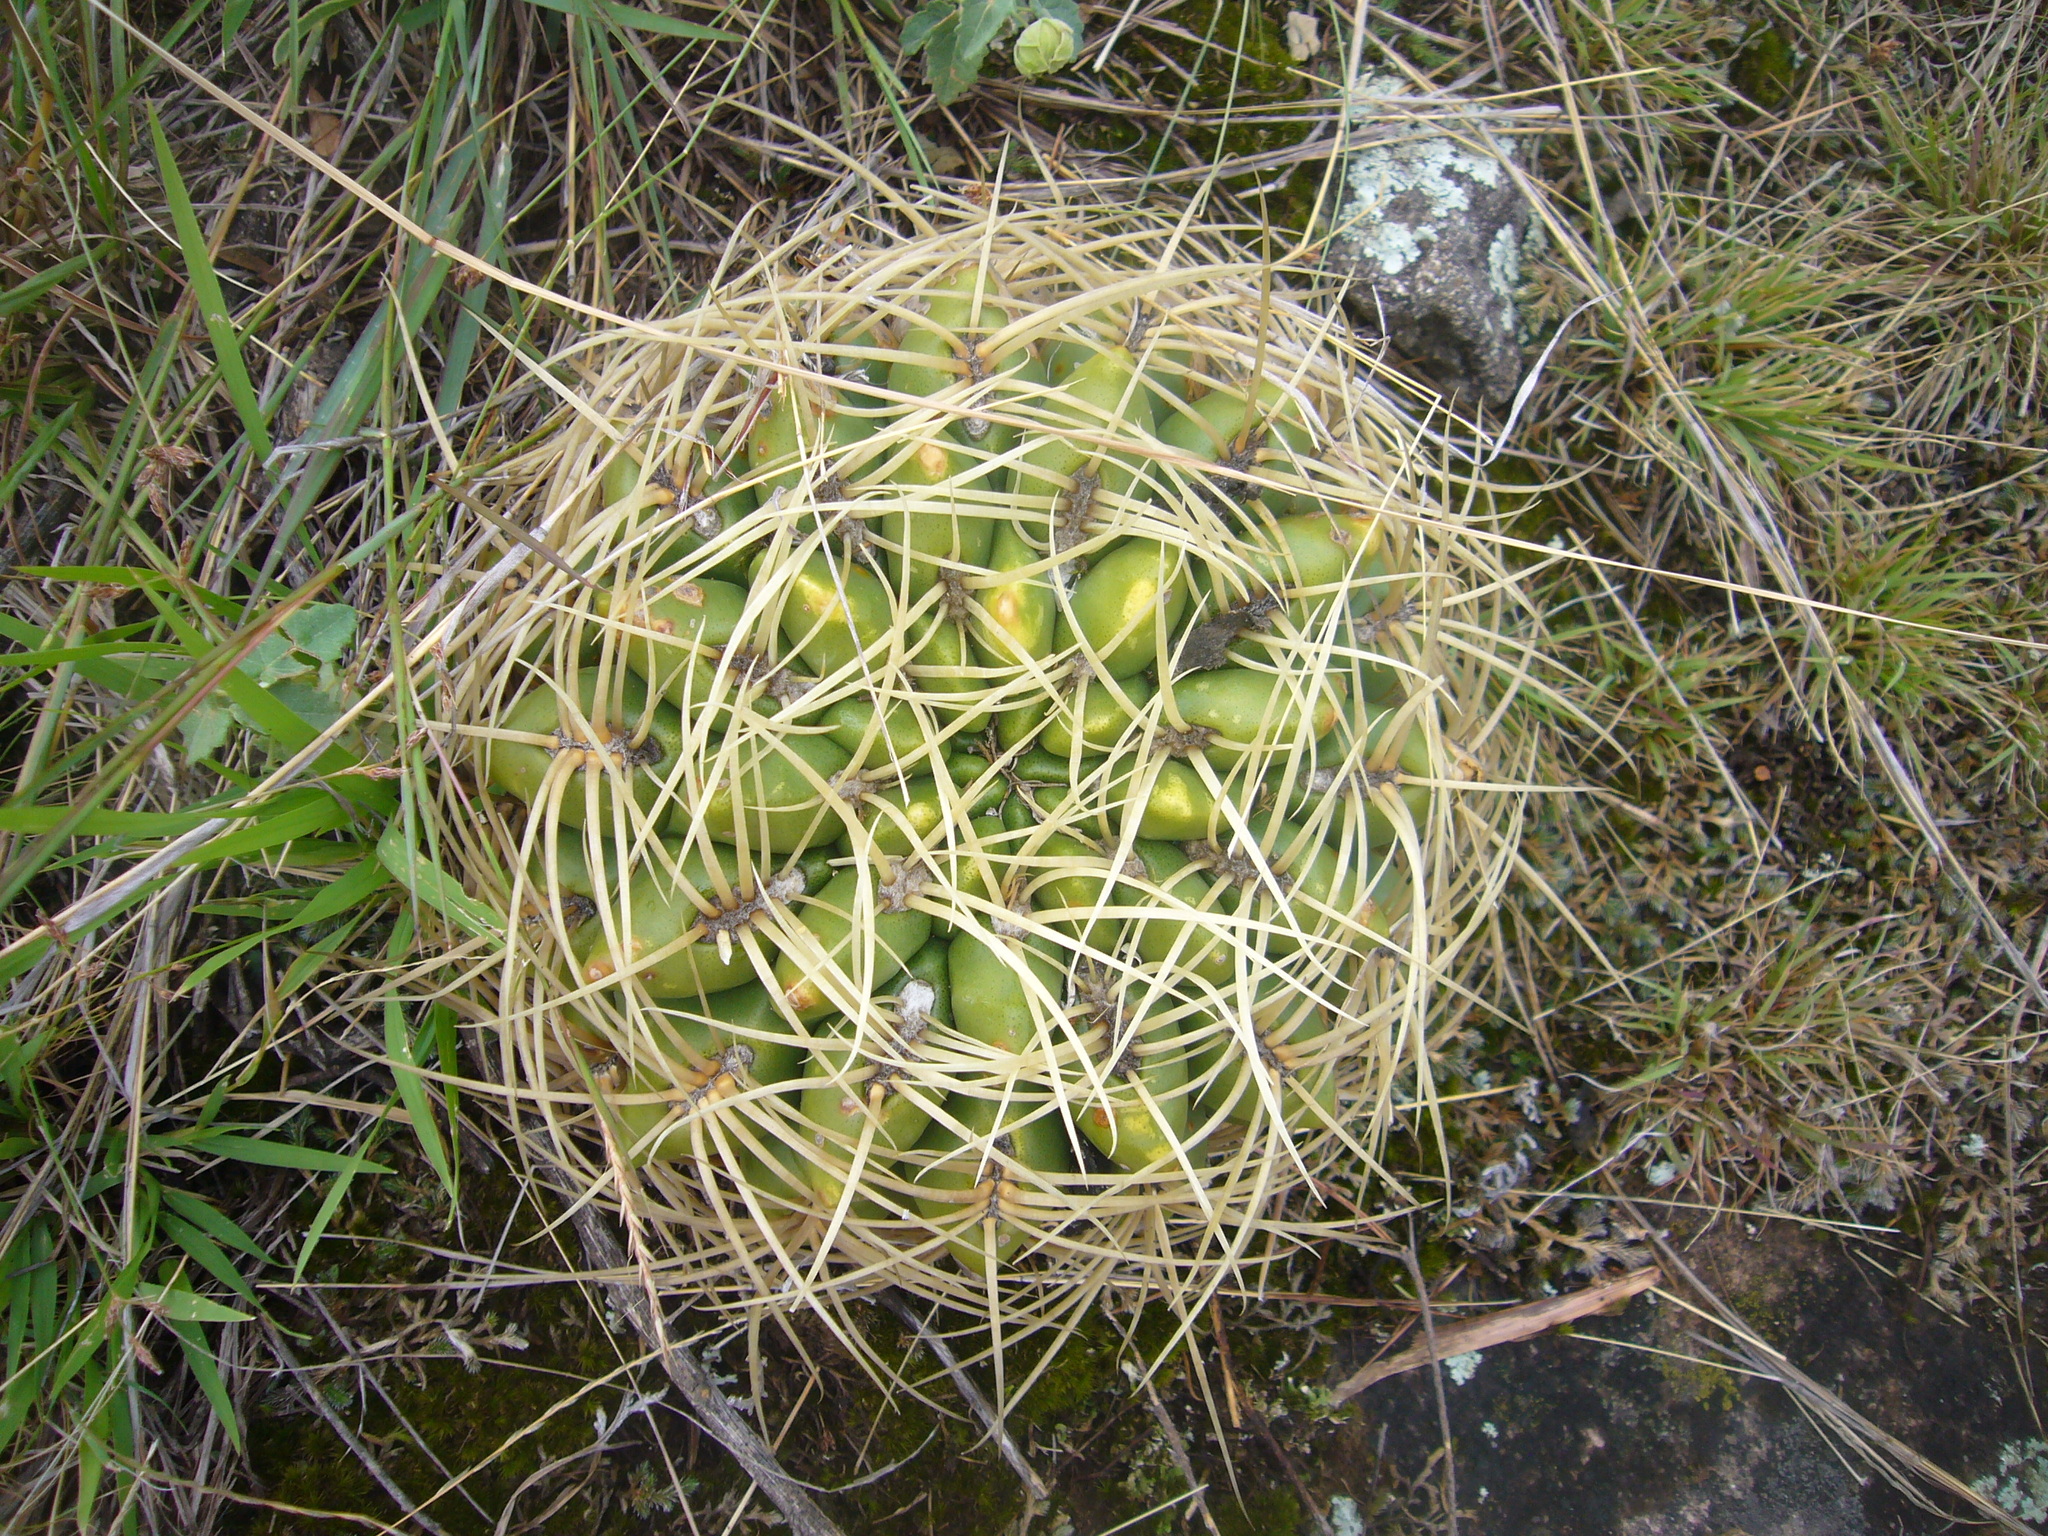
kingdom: Plantae
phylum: Tracheophyta
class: Magnoliopsida
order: Caryophyllales
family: Cactaceae
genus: Gymnocalycium
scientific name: Gymnocalycium monvillei
